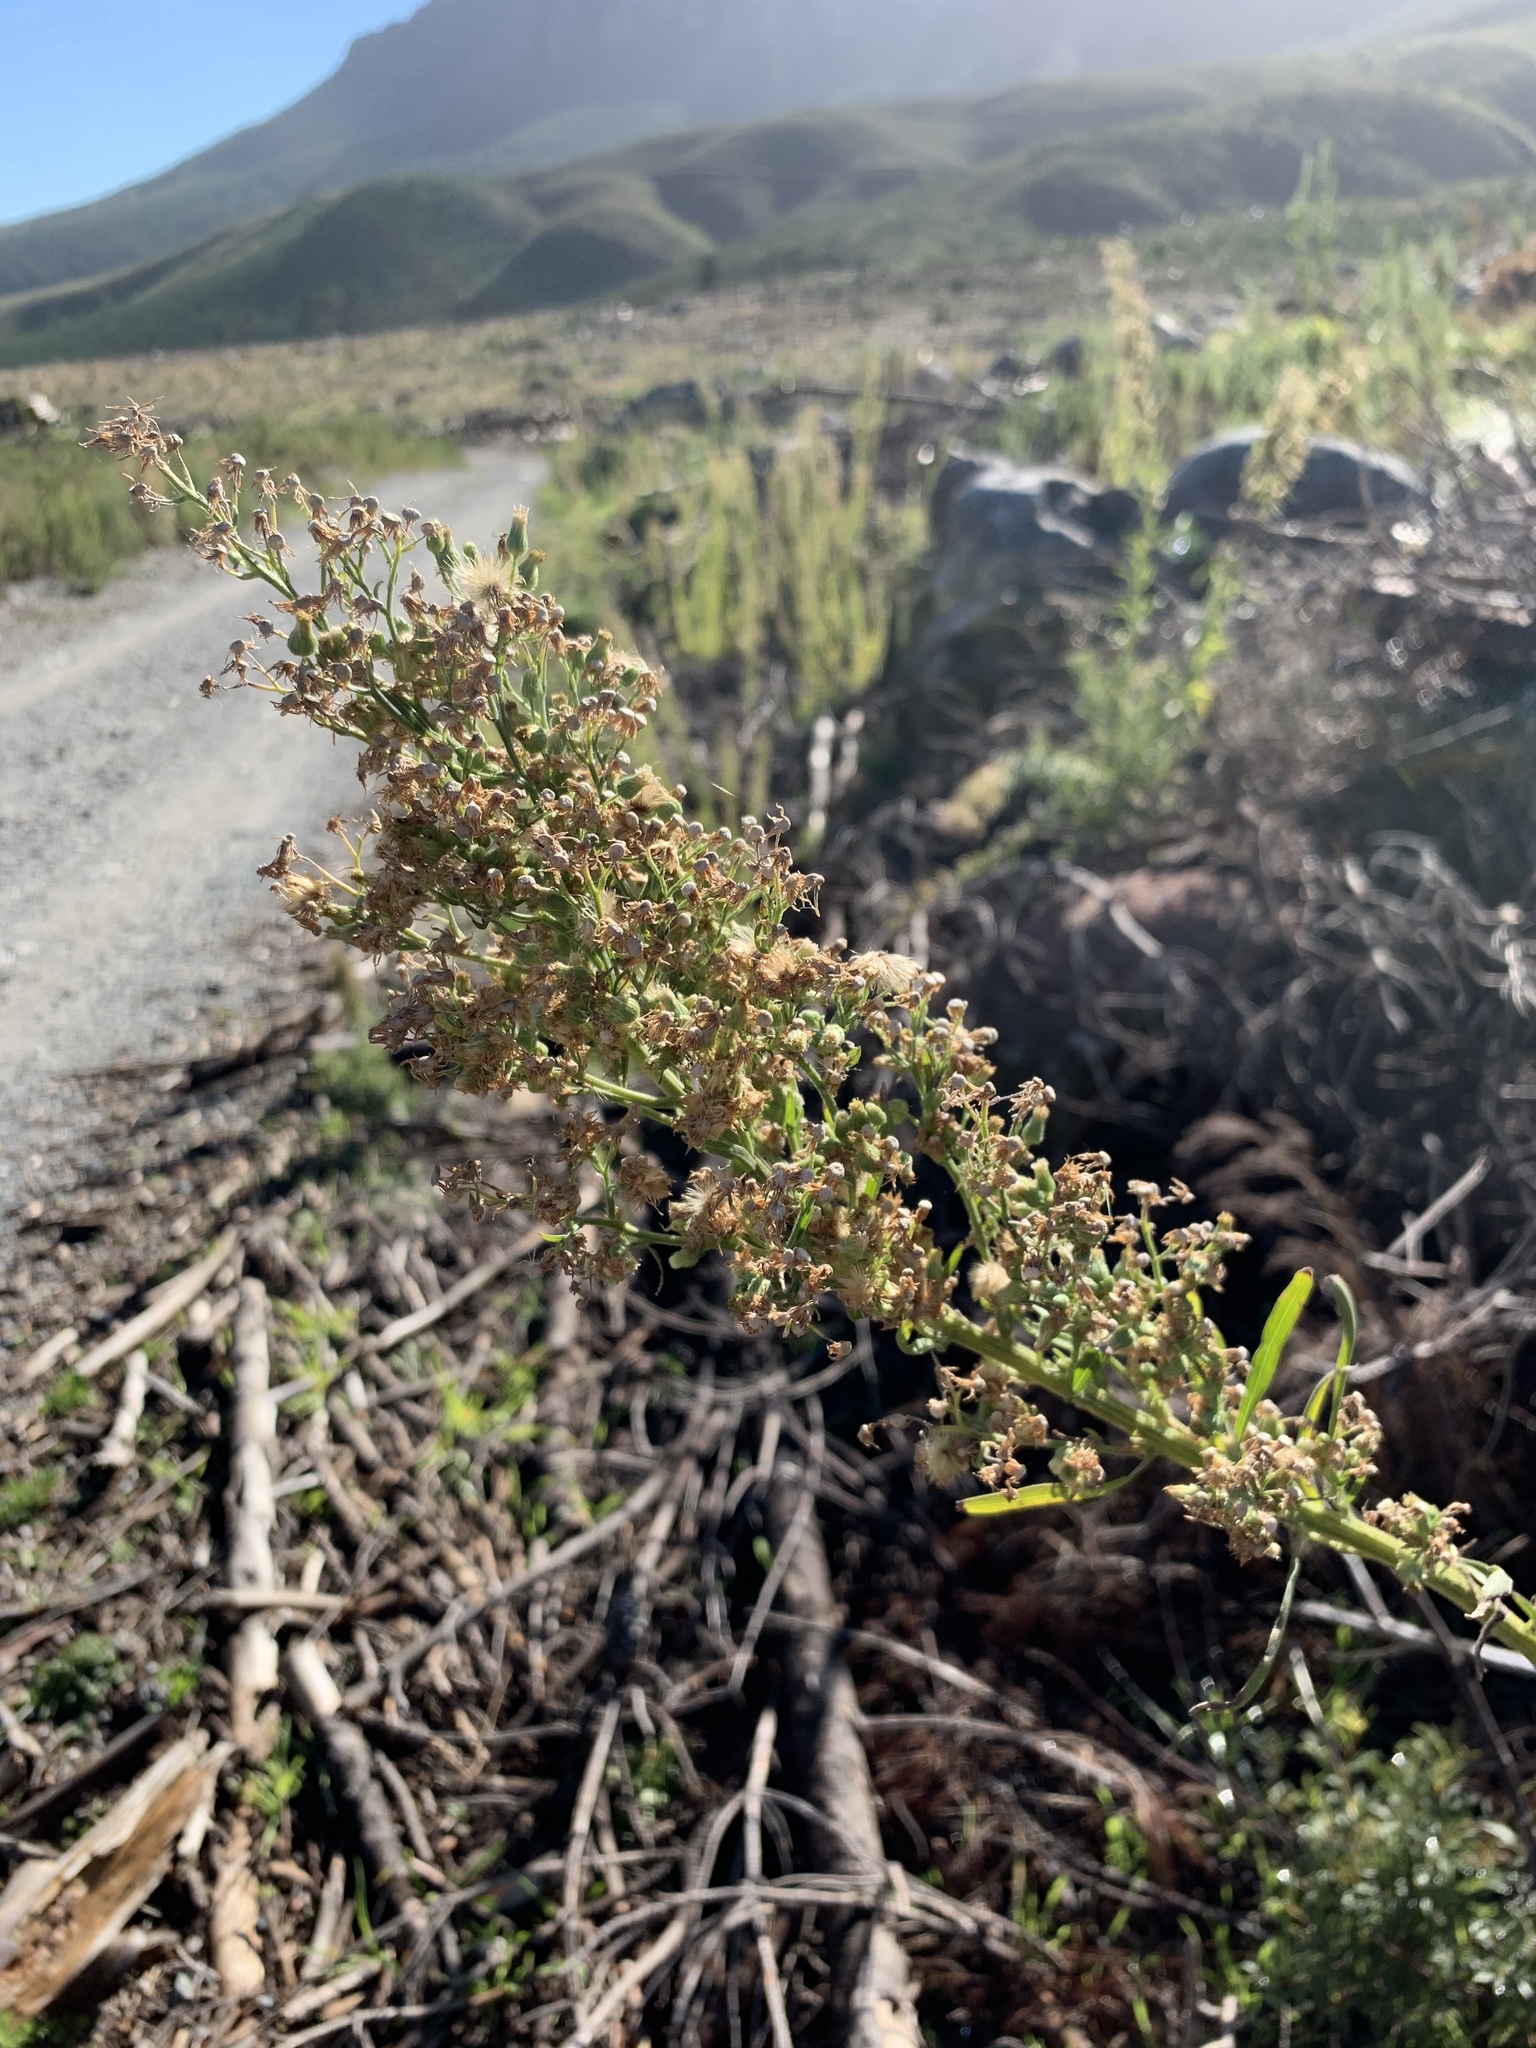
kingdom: Plantae
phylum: Tracheophyta
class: Magnoliopsida
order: Asterales
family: Asteraceae
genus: Erigeron
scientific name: Erigeron sumatrensis
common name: Daisy
